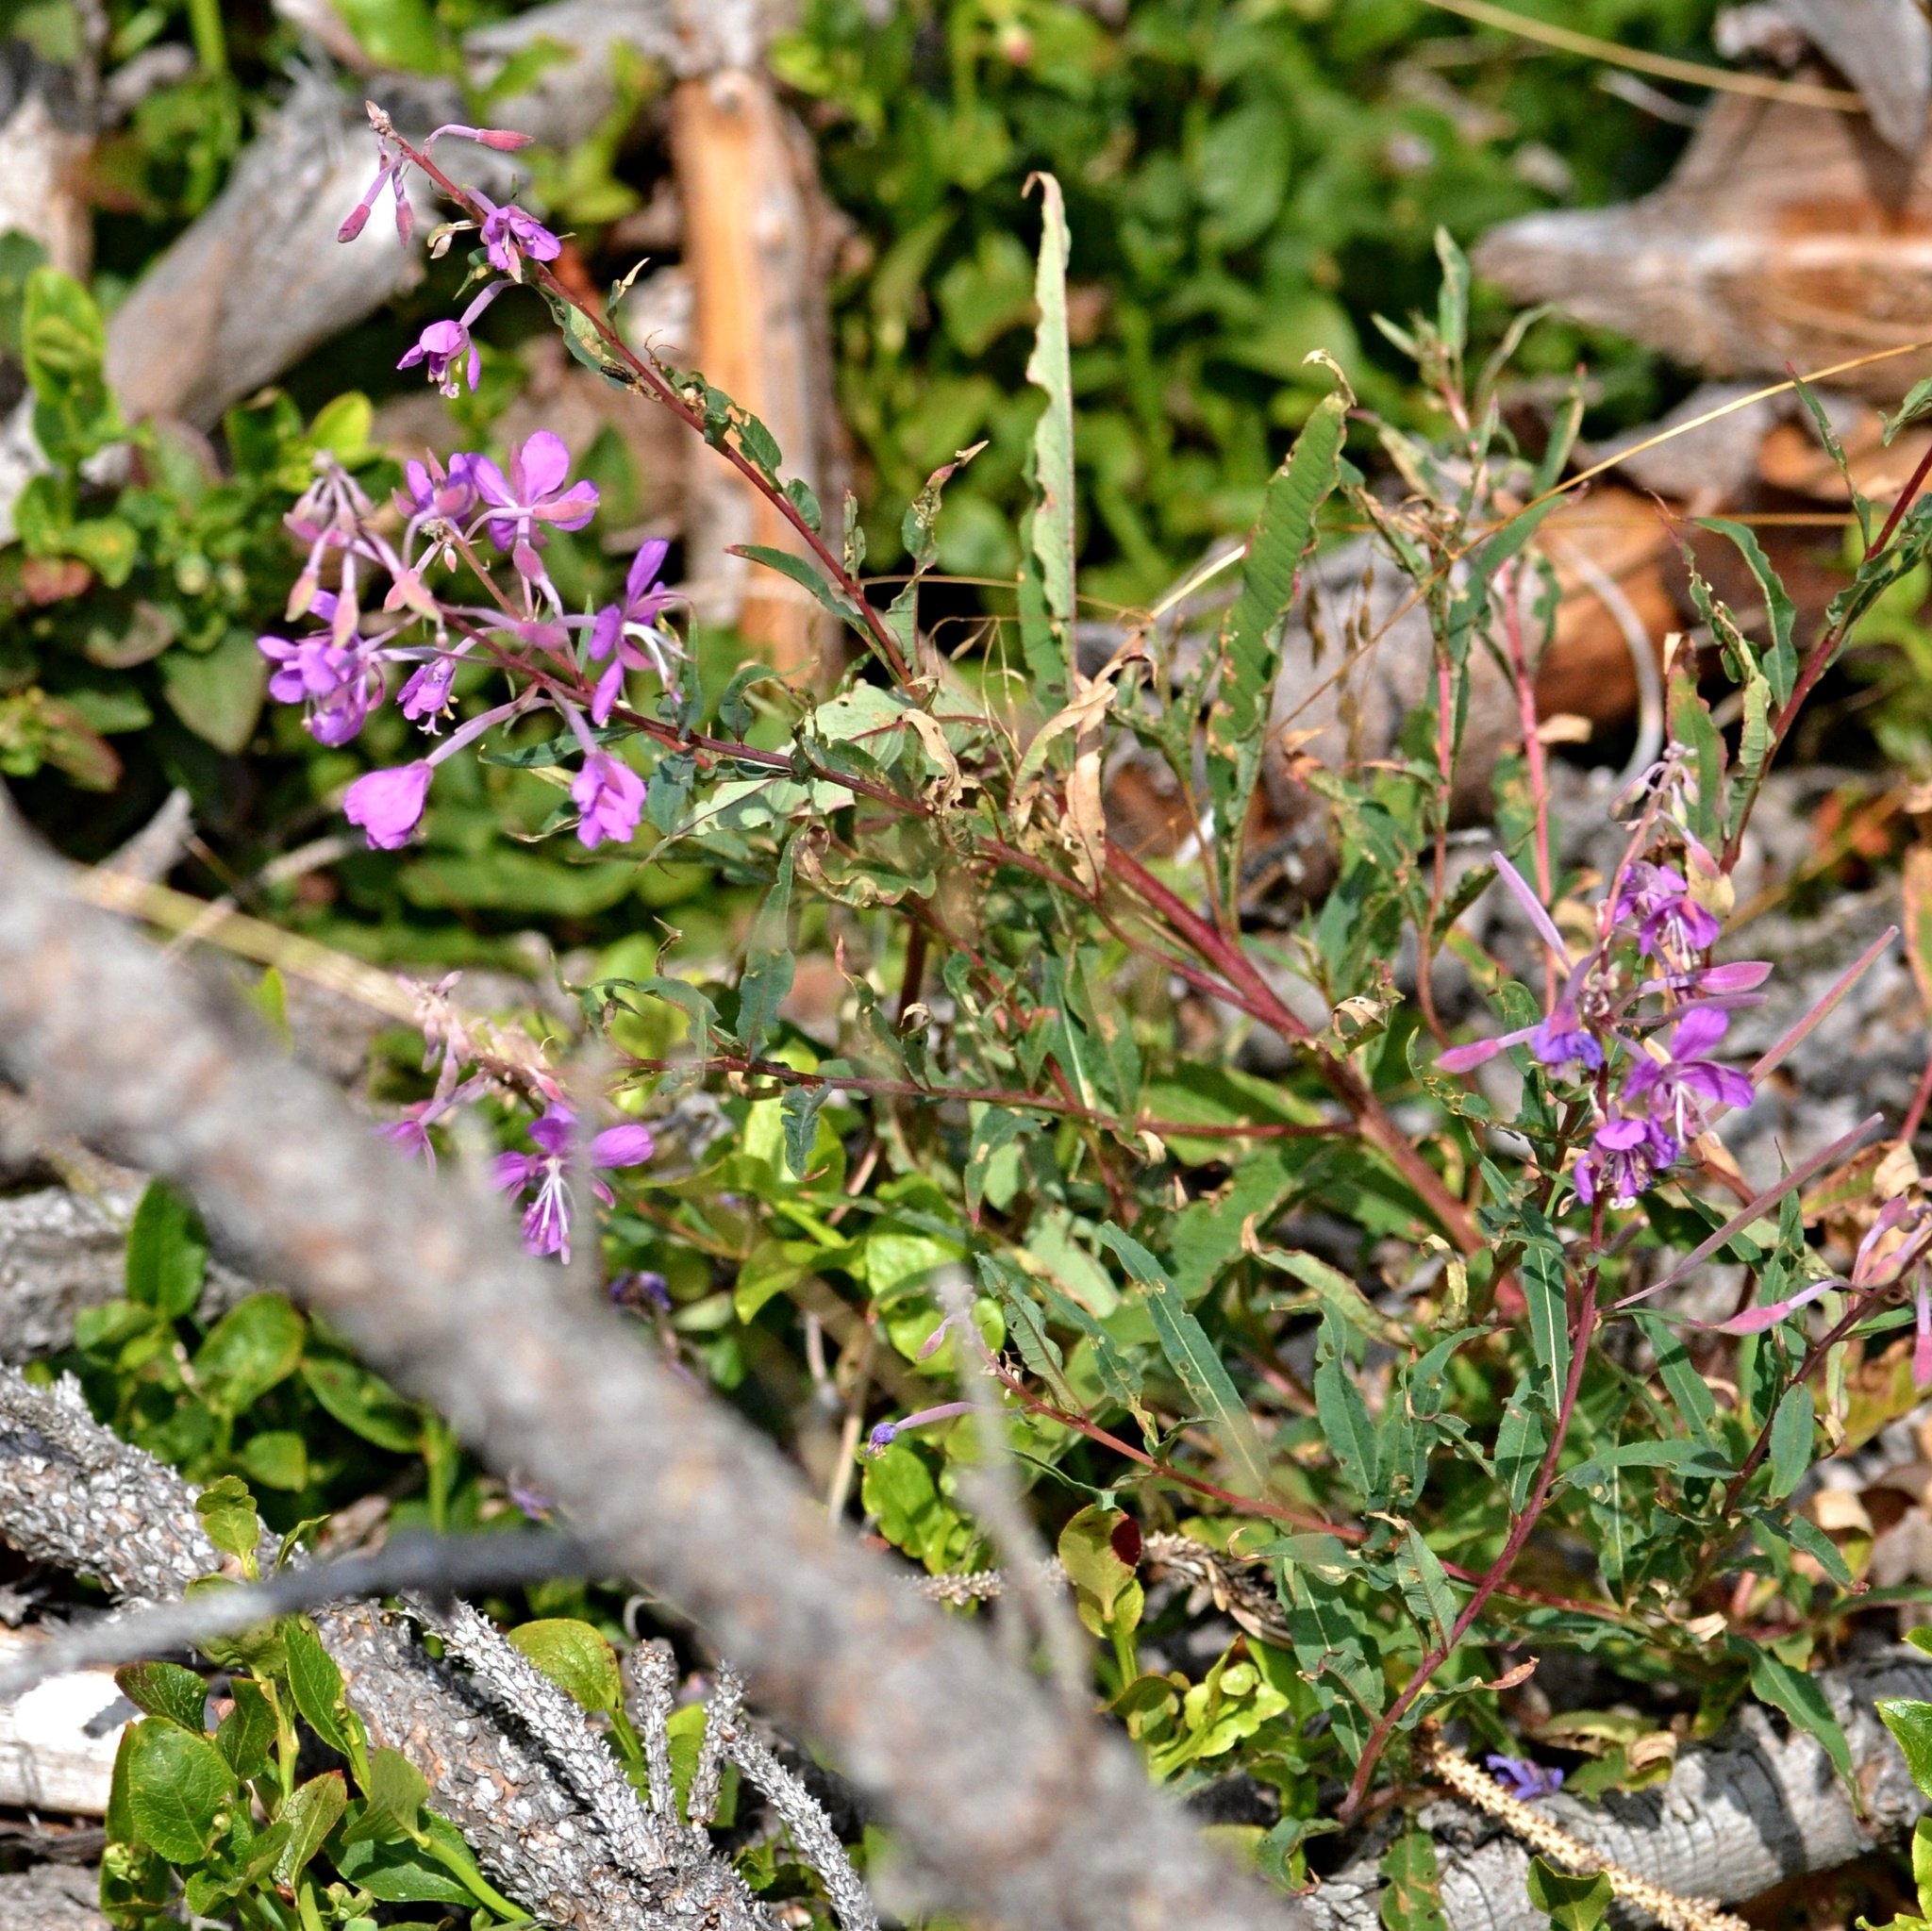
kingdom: Plantae
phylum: Tracheophyta
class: Magnoliopsida
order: Myrtales
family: Onagraceae
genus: Chamaenerion
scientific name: Chamaenerion angustifolium
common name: Fireweed
